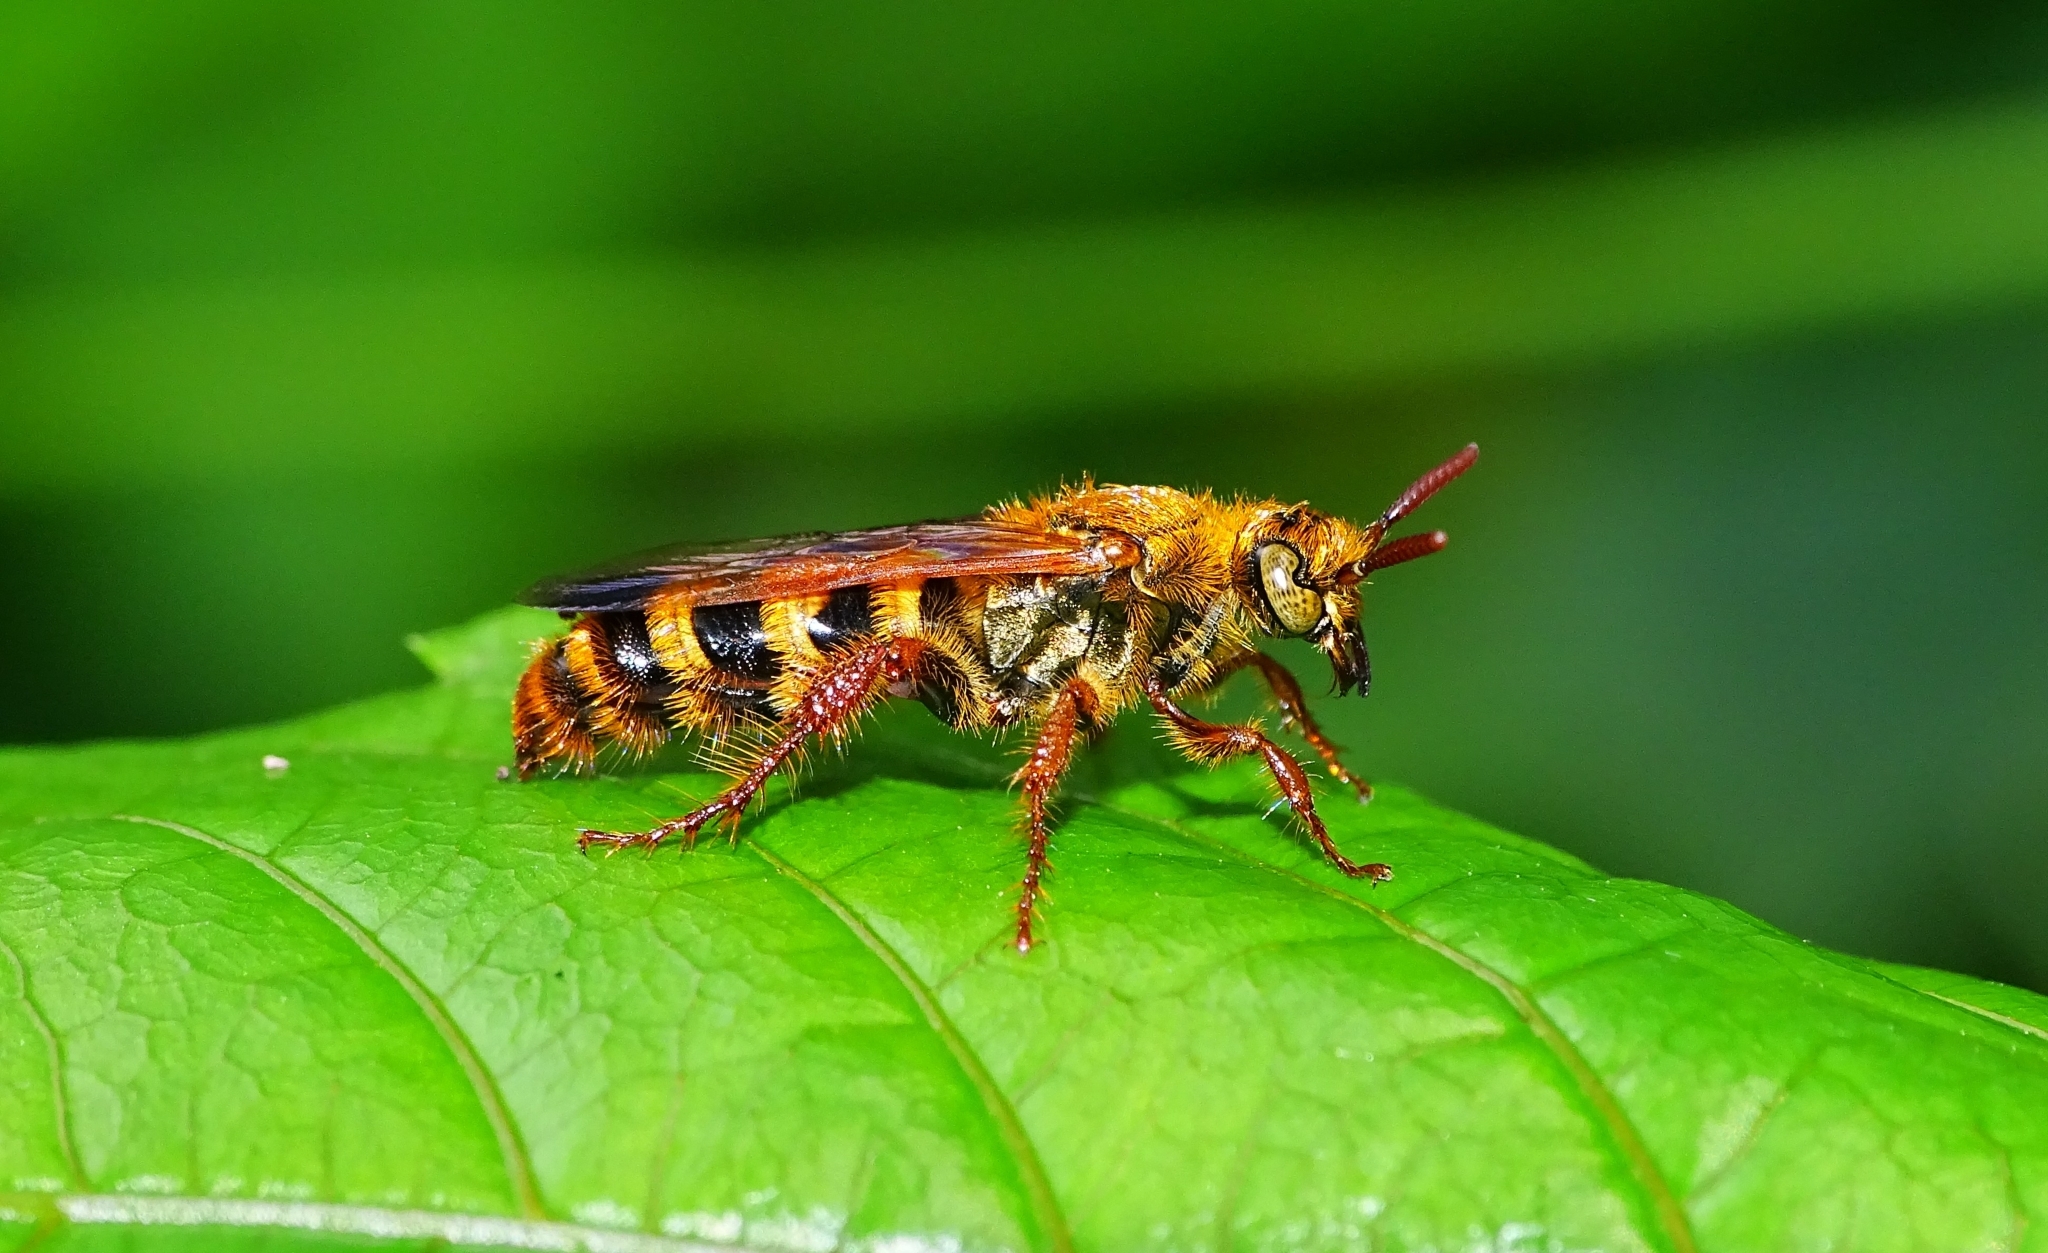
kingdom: Animalia
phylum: Arthropoda
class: Insecta
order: Hymenoptera
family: Scoliidae
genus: Campsomeris
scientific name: Campsomeris phalerata
